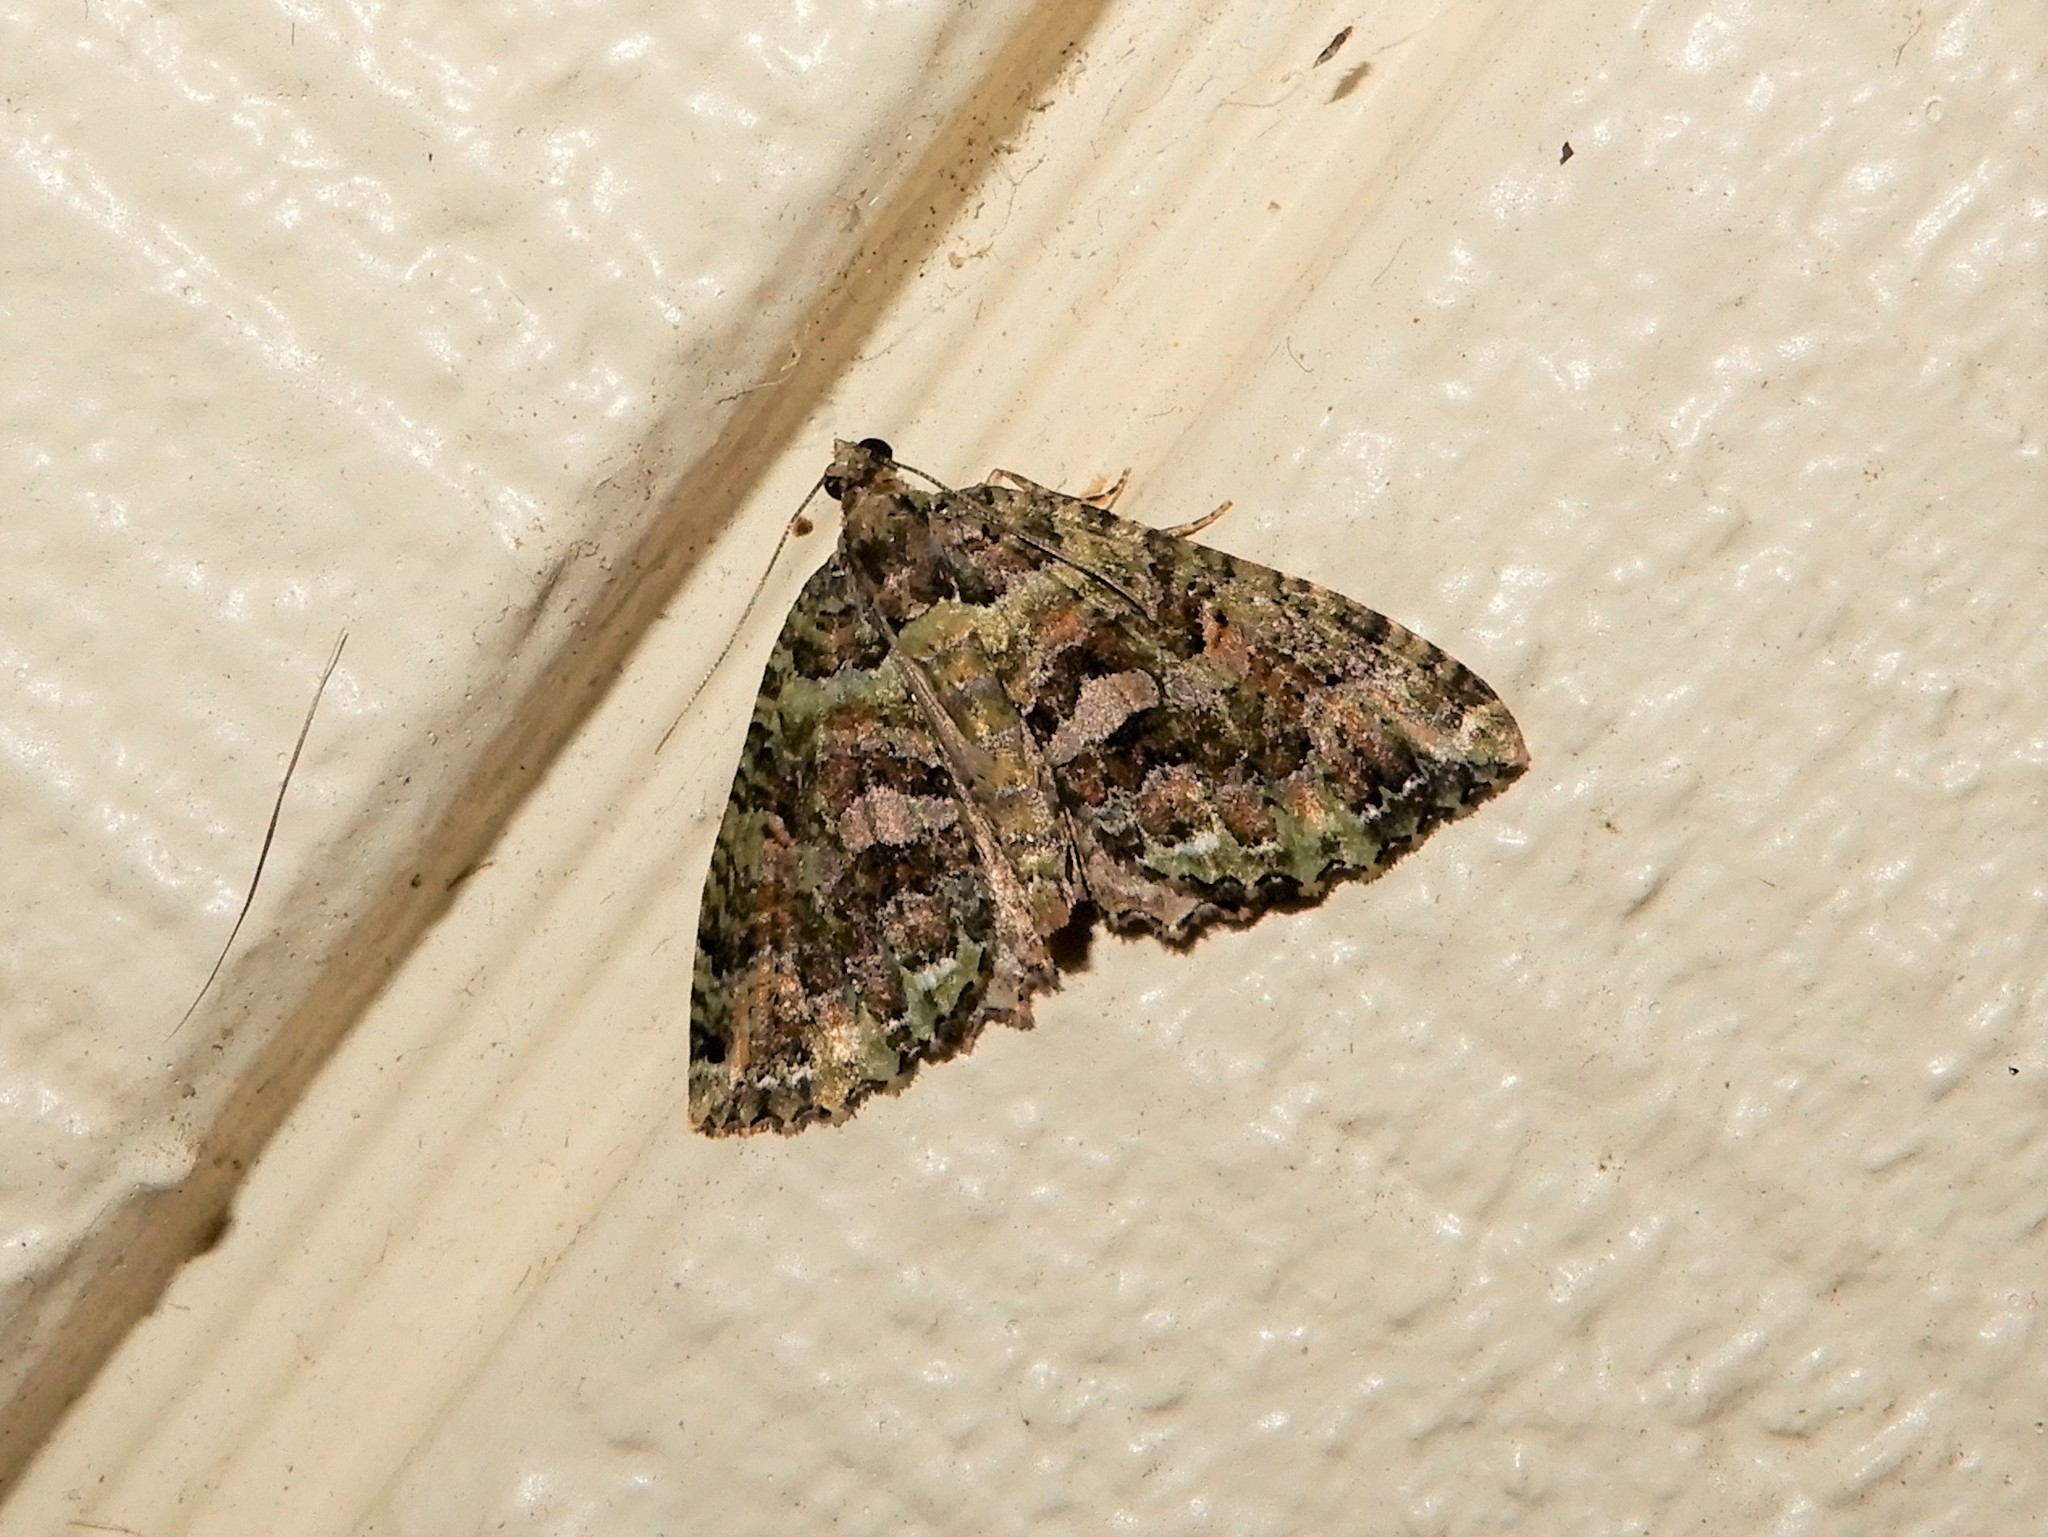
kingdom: Animalia
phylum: Arthropoda
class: Insecta
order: Lepidoptera
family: Geometridae
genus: Austrocidaria
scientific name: Austrocidaria similata
